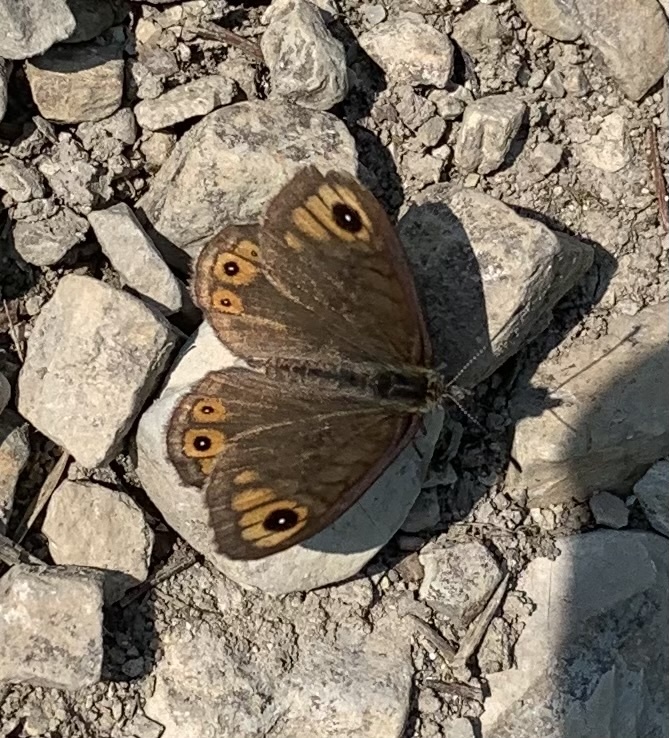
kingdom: Animalia
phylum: Arthropoda
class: Insecta
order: Lepidoptera
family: Nymphalidae
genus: Pararge
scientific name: Pararge petropolitana
